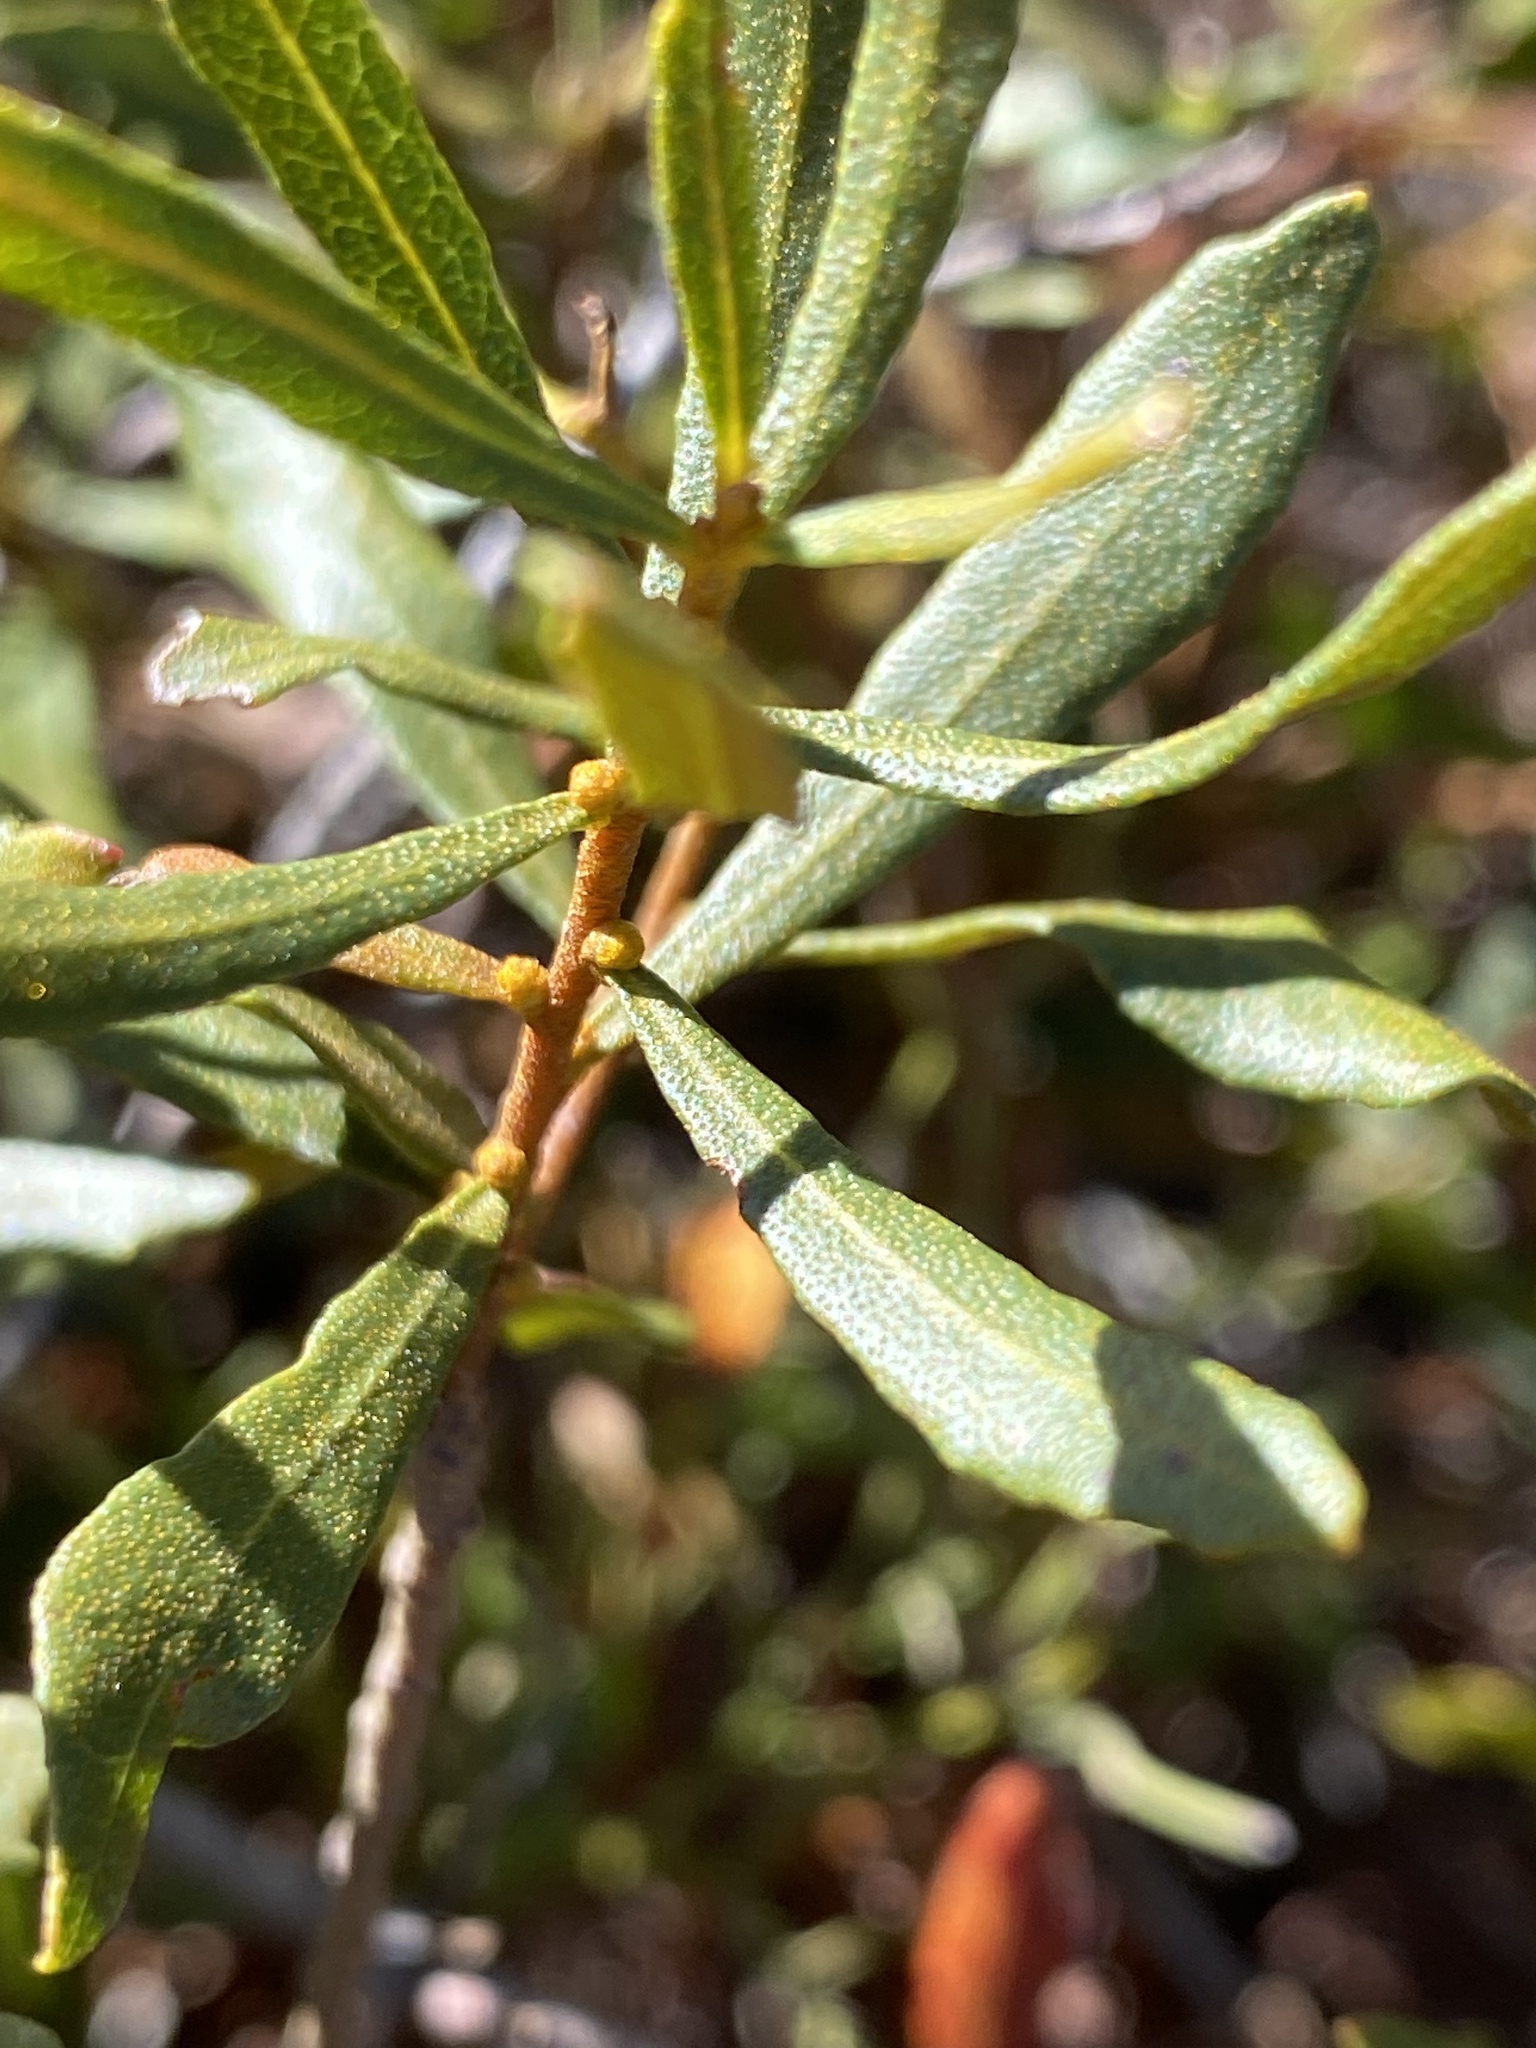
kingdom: Plantae
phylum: Tracheophyta
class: Magnoliopsida
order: Fagales
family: Myricaceae
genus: Morella
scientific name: Morella cerifera
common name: Wax myrtle
